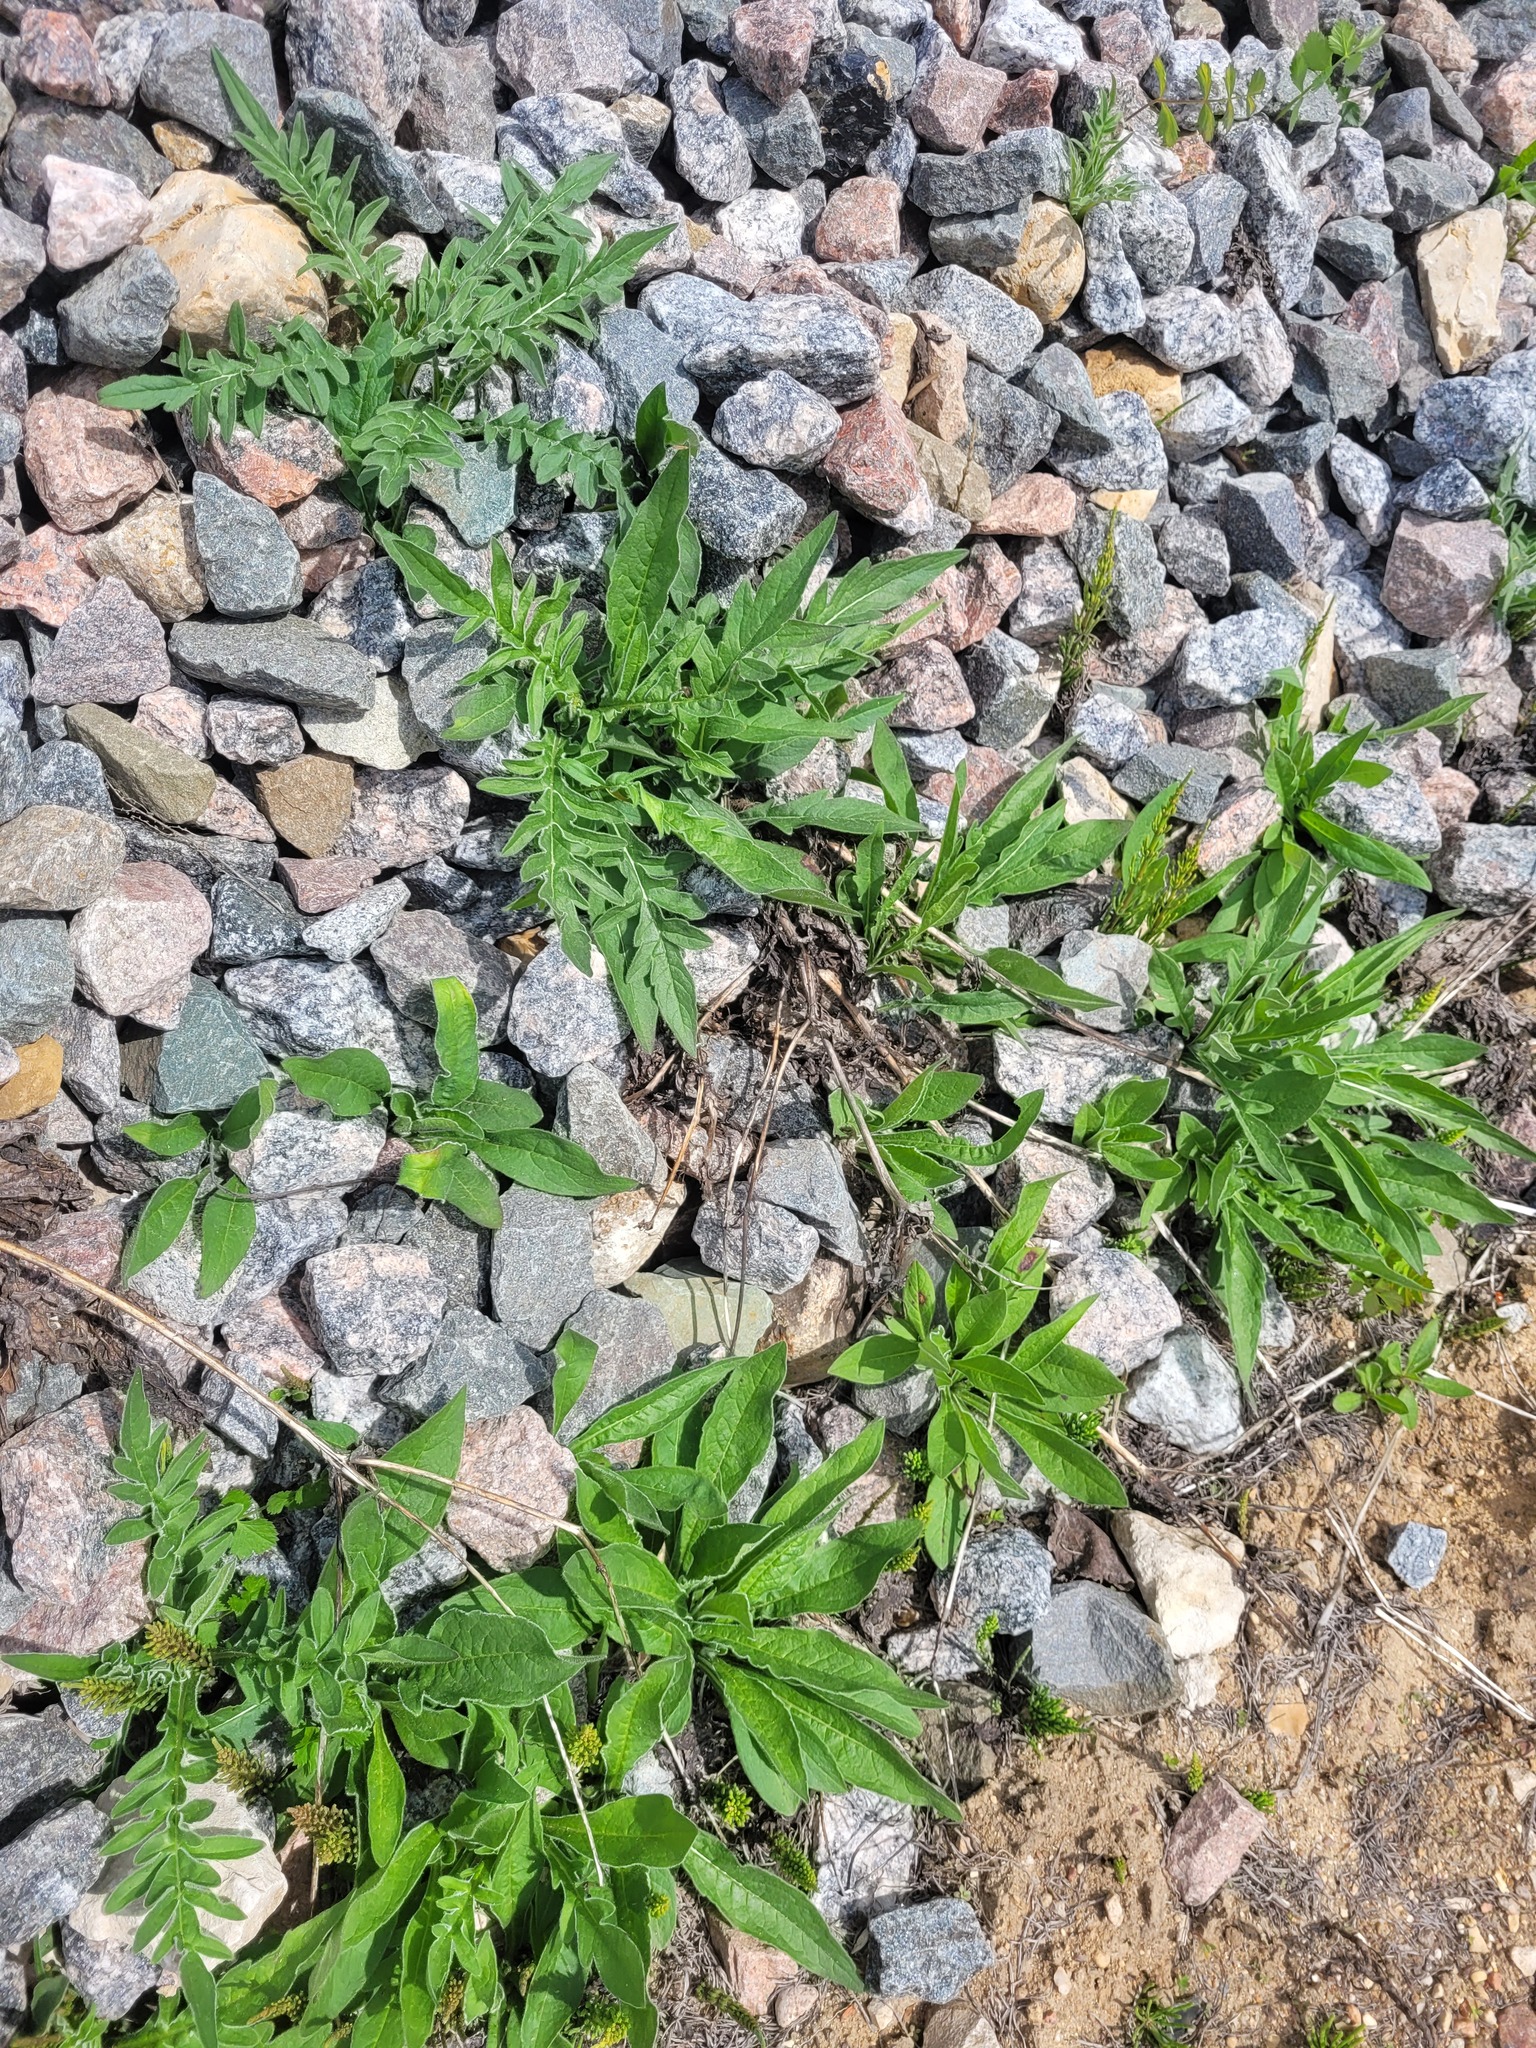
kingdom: Plantae
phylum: Tracheophyta
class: Magnoliopsida
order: Dipsacales
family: Caprifoliaceae
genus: Knautia
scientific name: Knautia arvensis
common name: Field scabiosa
